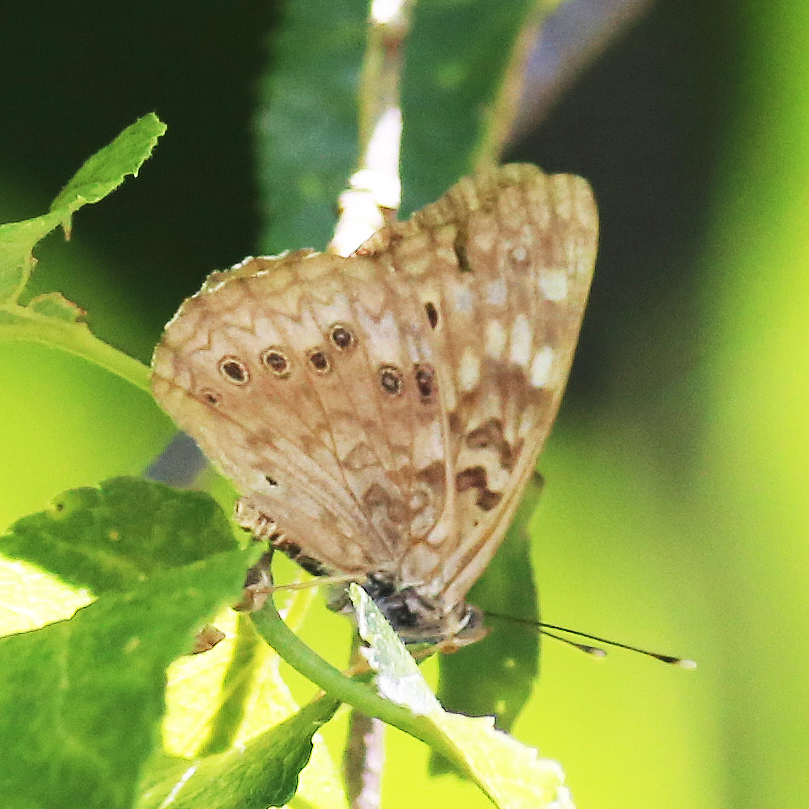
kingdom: Animalia
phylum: Arthropoda
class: Insecta
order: Lepidoptera
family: Nymphalidae
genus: Asterocampa
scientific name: Asterocampa celtis
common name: Hackberry emperor
